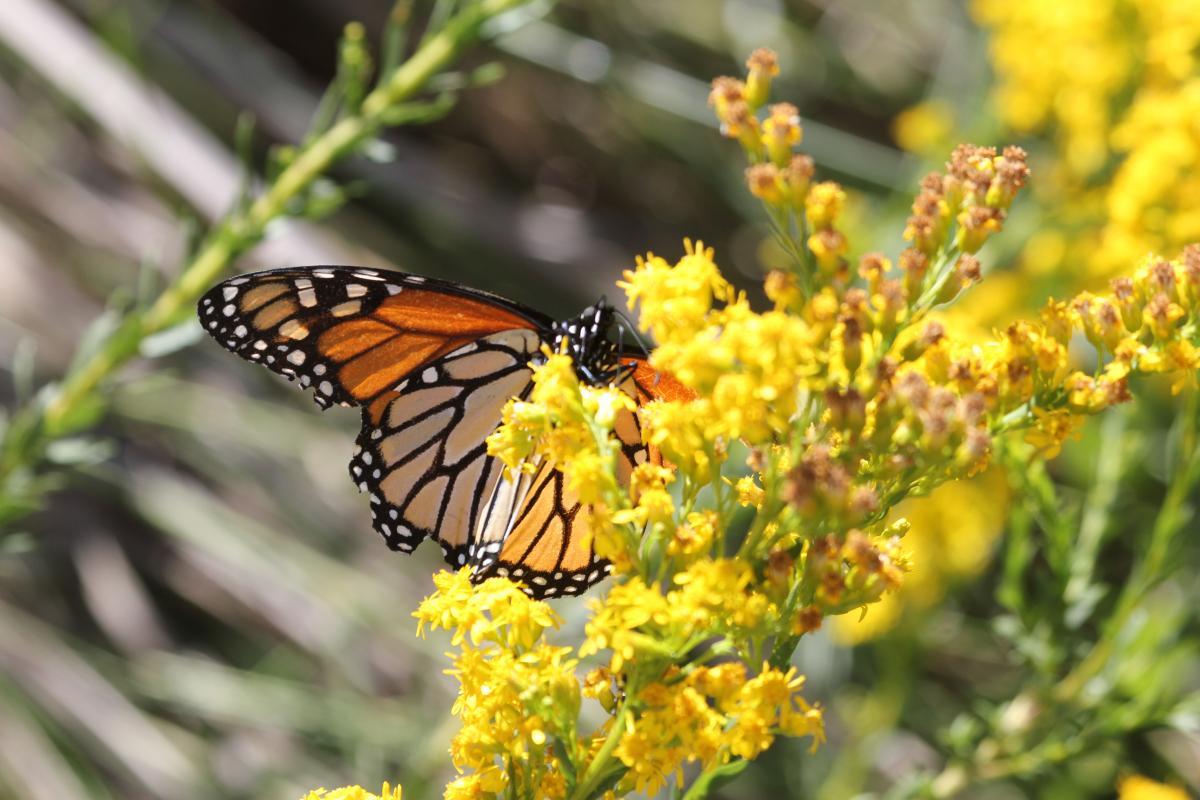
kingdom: Animalia
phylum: Arthropoda
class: Insecta
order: Lepidoptera
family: Nymphalidae
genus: Danaus
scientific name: Danaus plexippus
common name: Monarch
